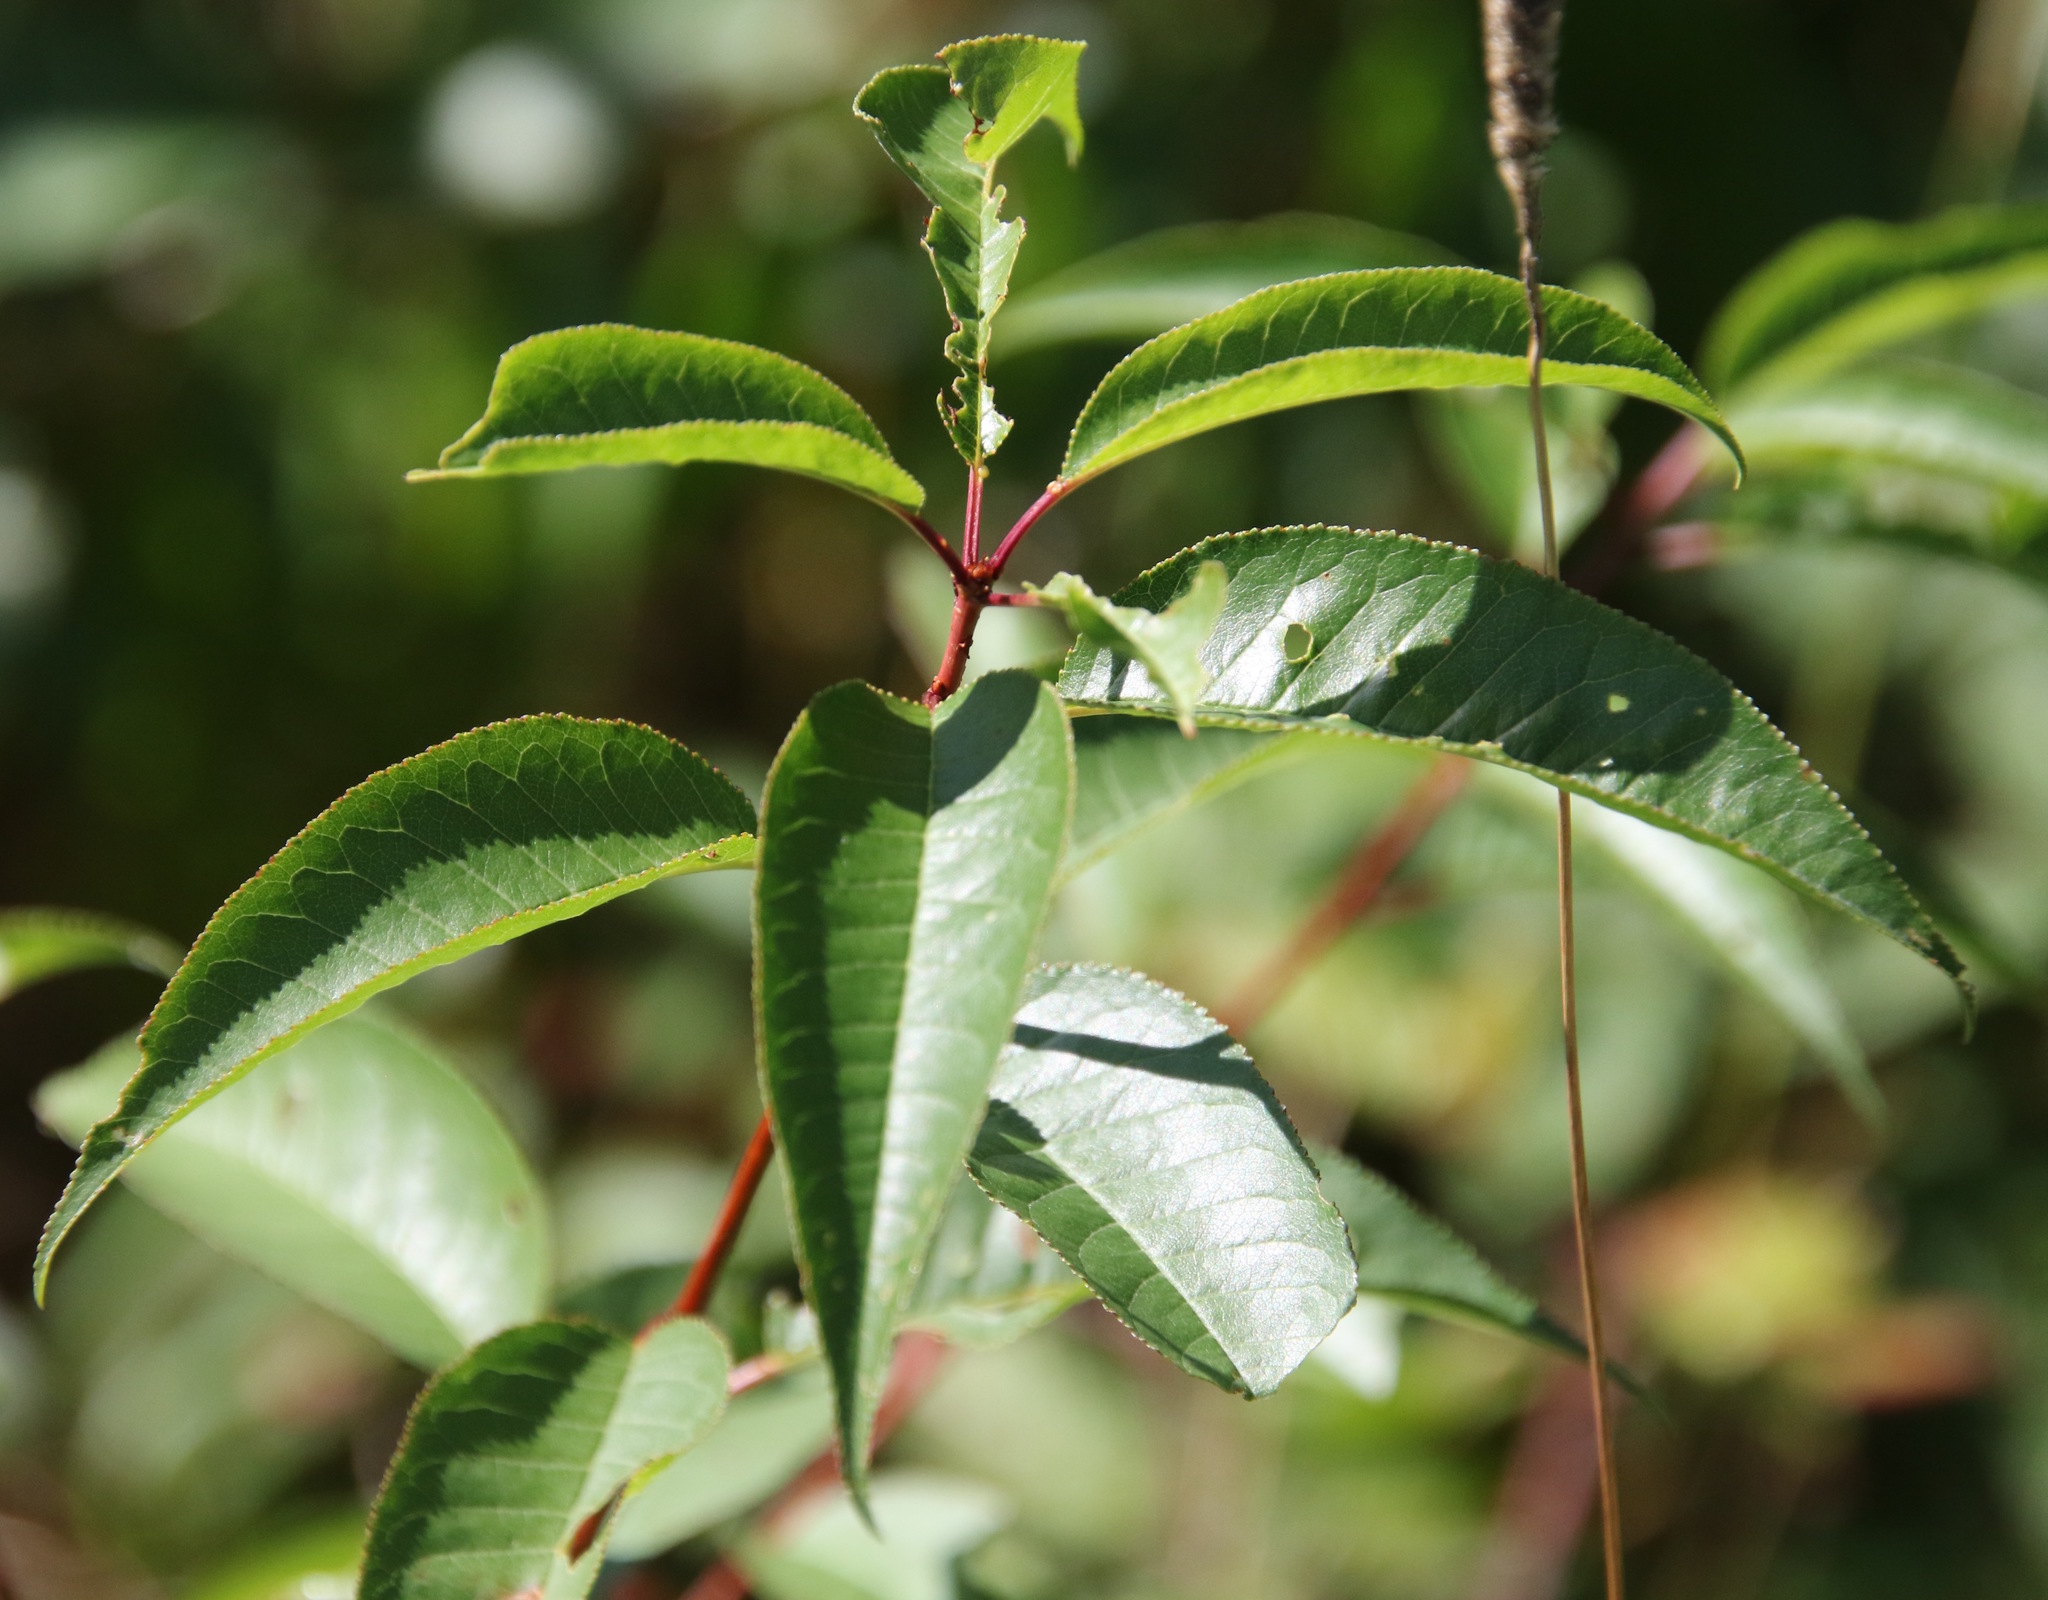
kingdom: Plantae
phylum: Tracheophyta
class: Magnoliopsida
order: Rosales
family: Rosaceae
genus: Prunus
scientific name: Prunus pensylvanica
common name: Pin cherry
